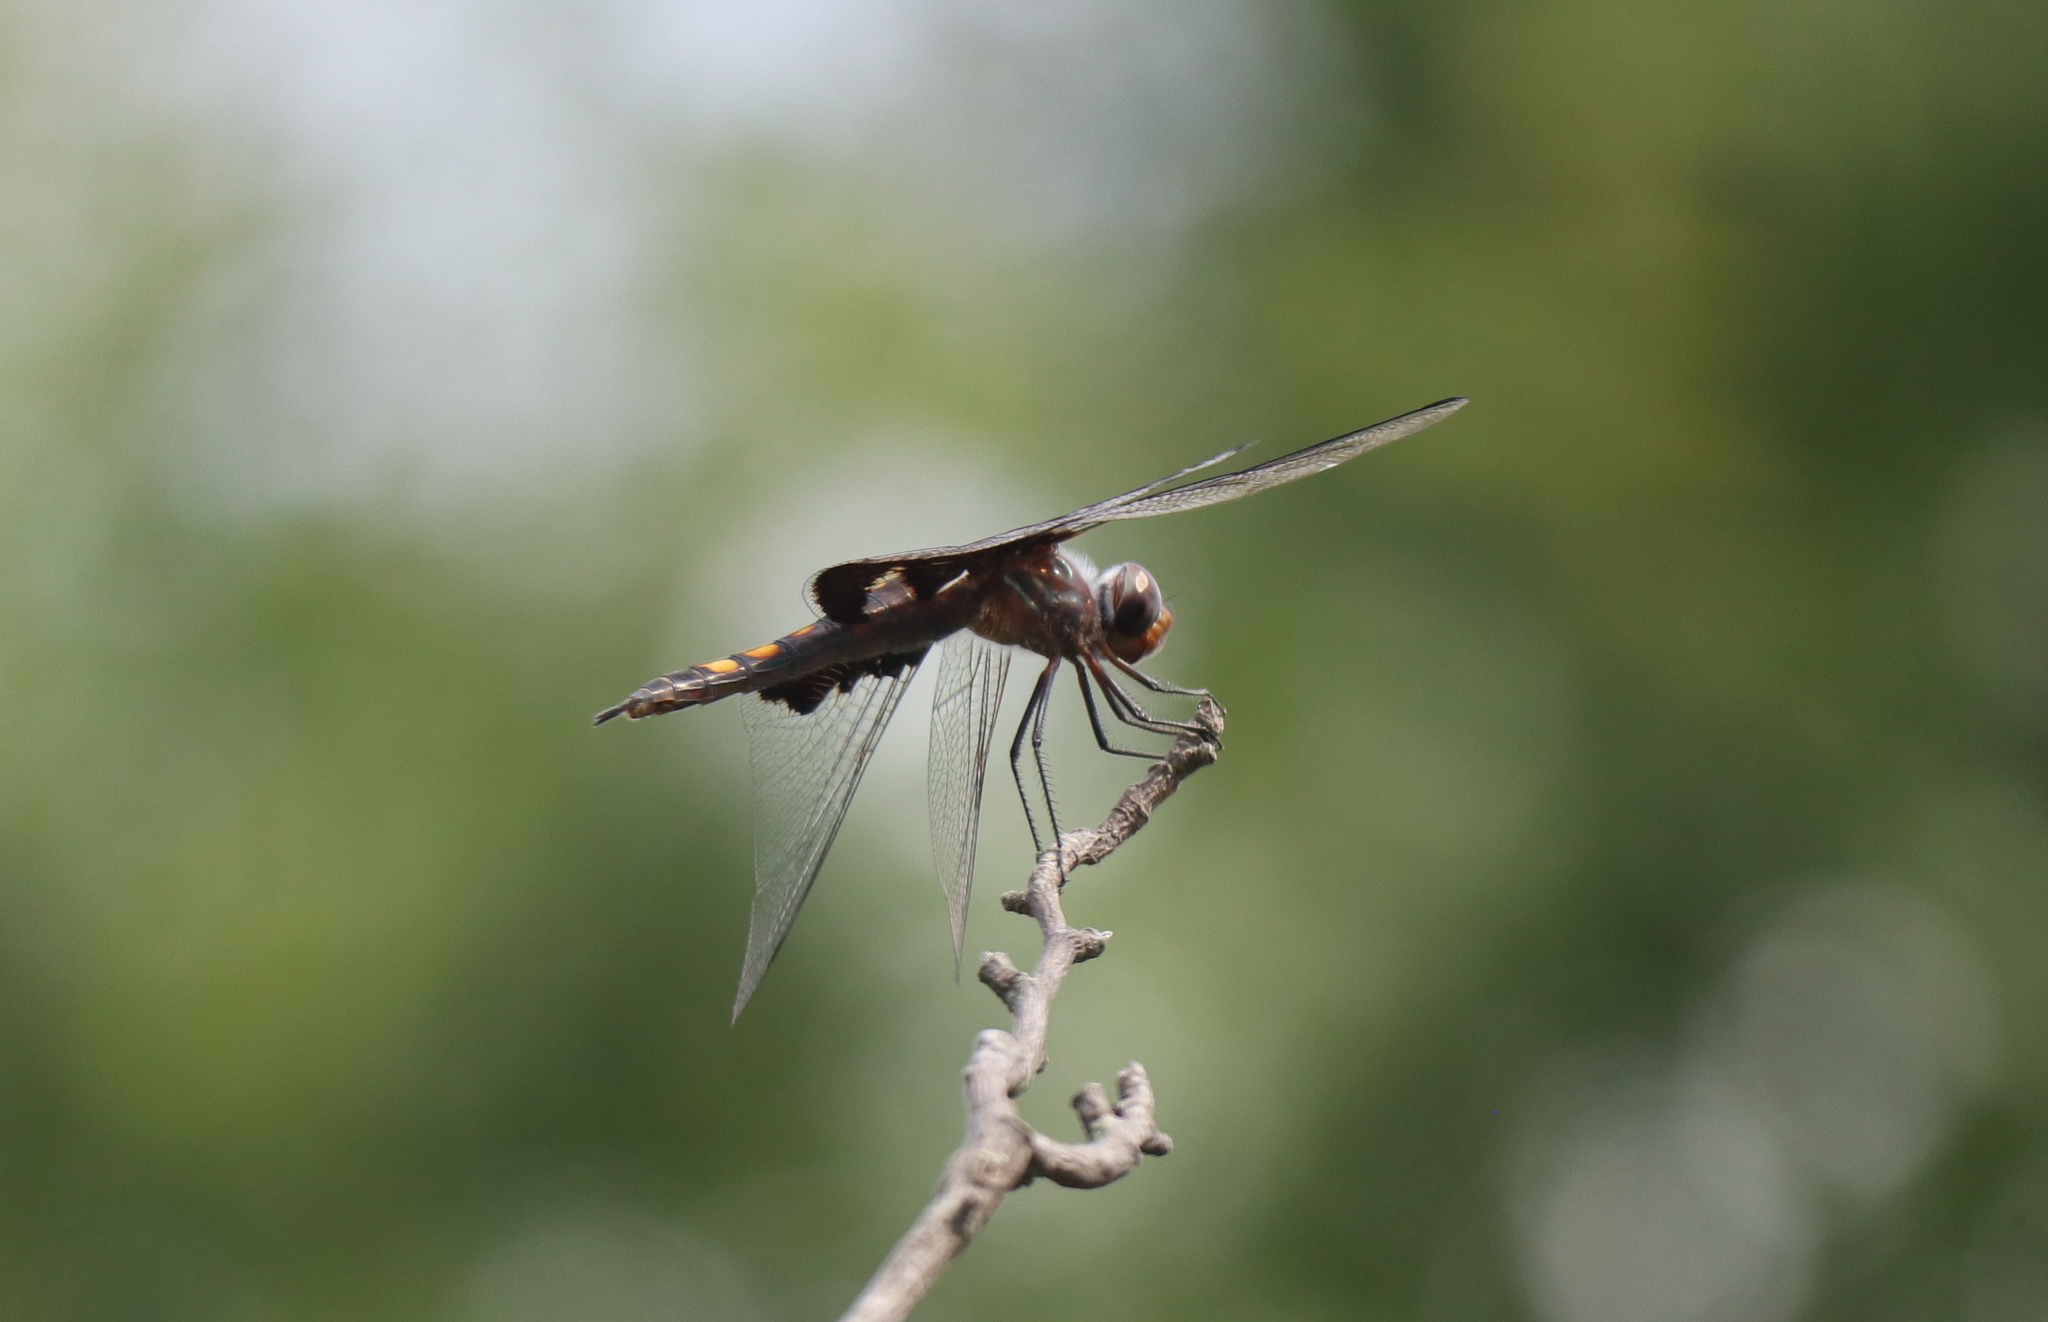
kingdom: Animalia
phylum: Arthropoda
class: Insecta
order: Odonata
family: Libellulidae
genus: Tramea
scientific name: Tramea lacerata
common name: Black saddlebags
